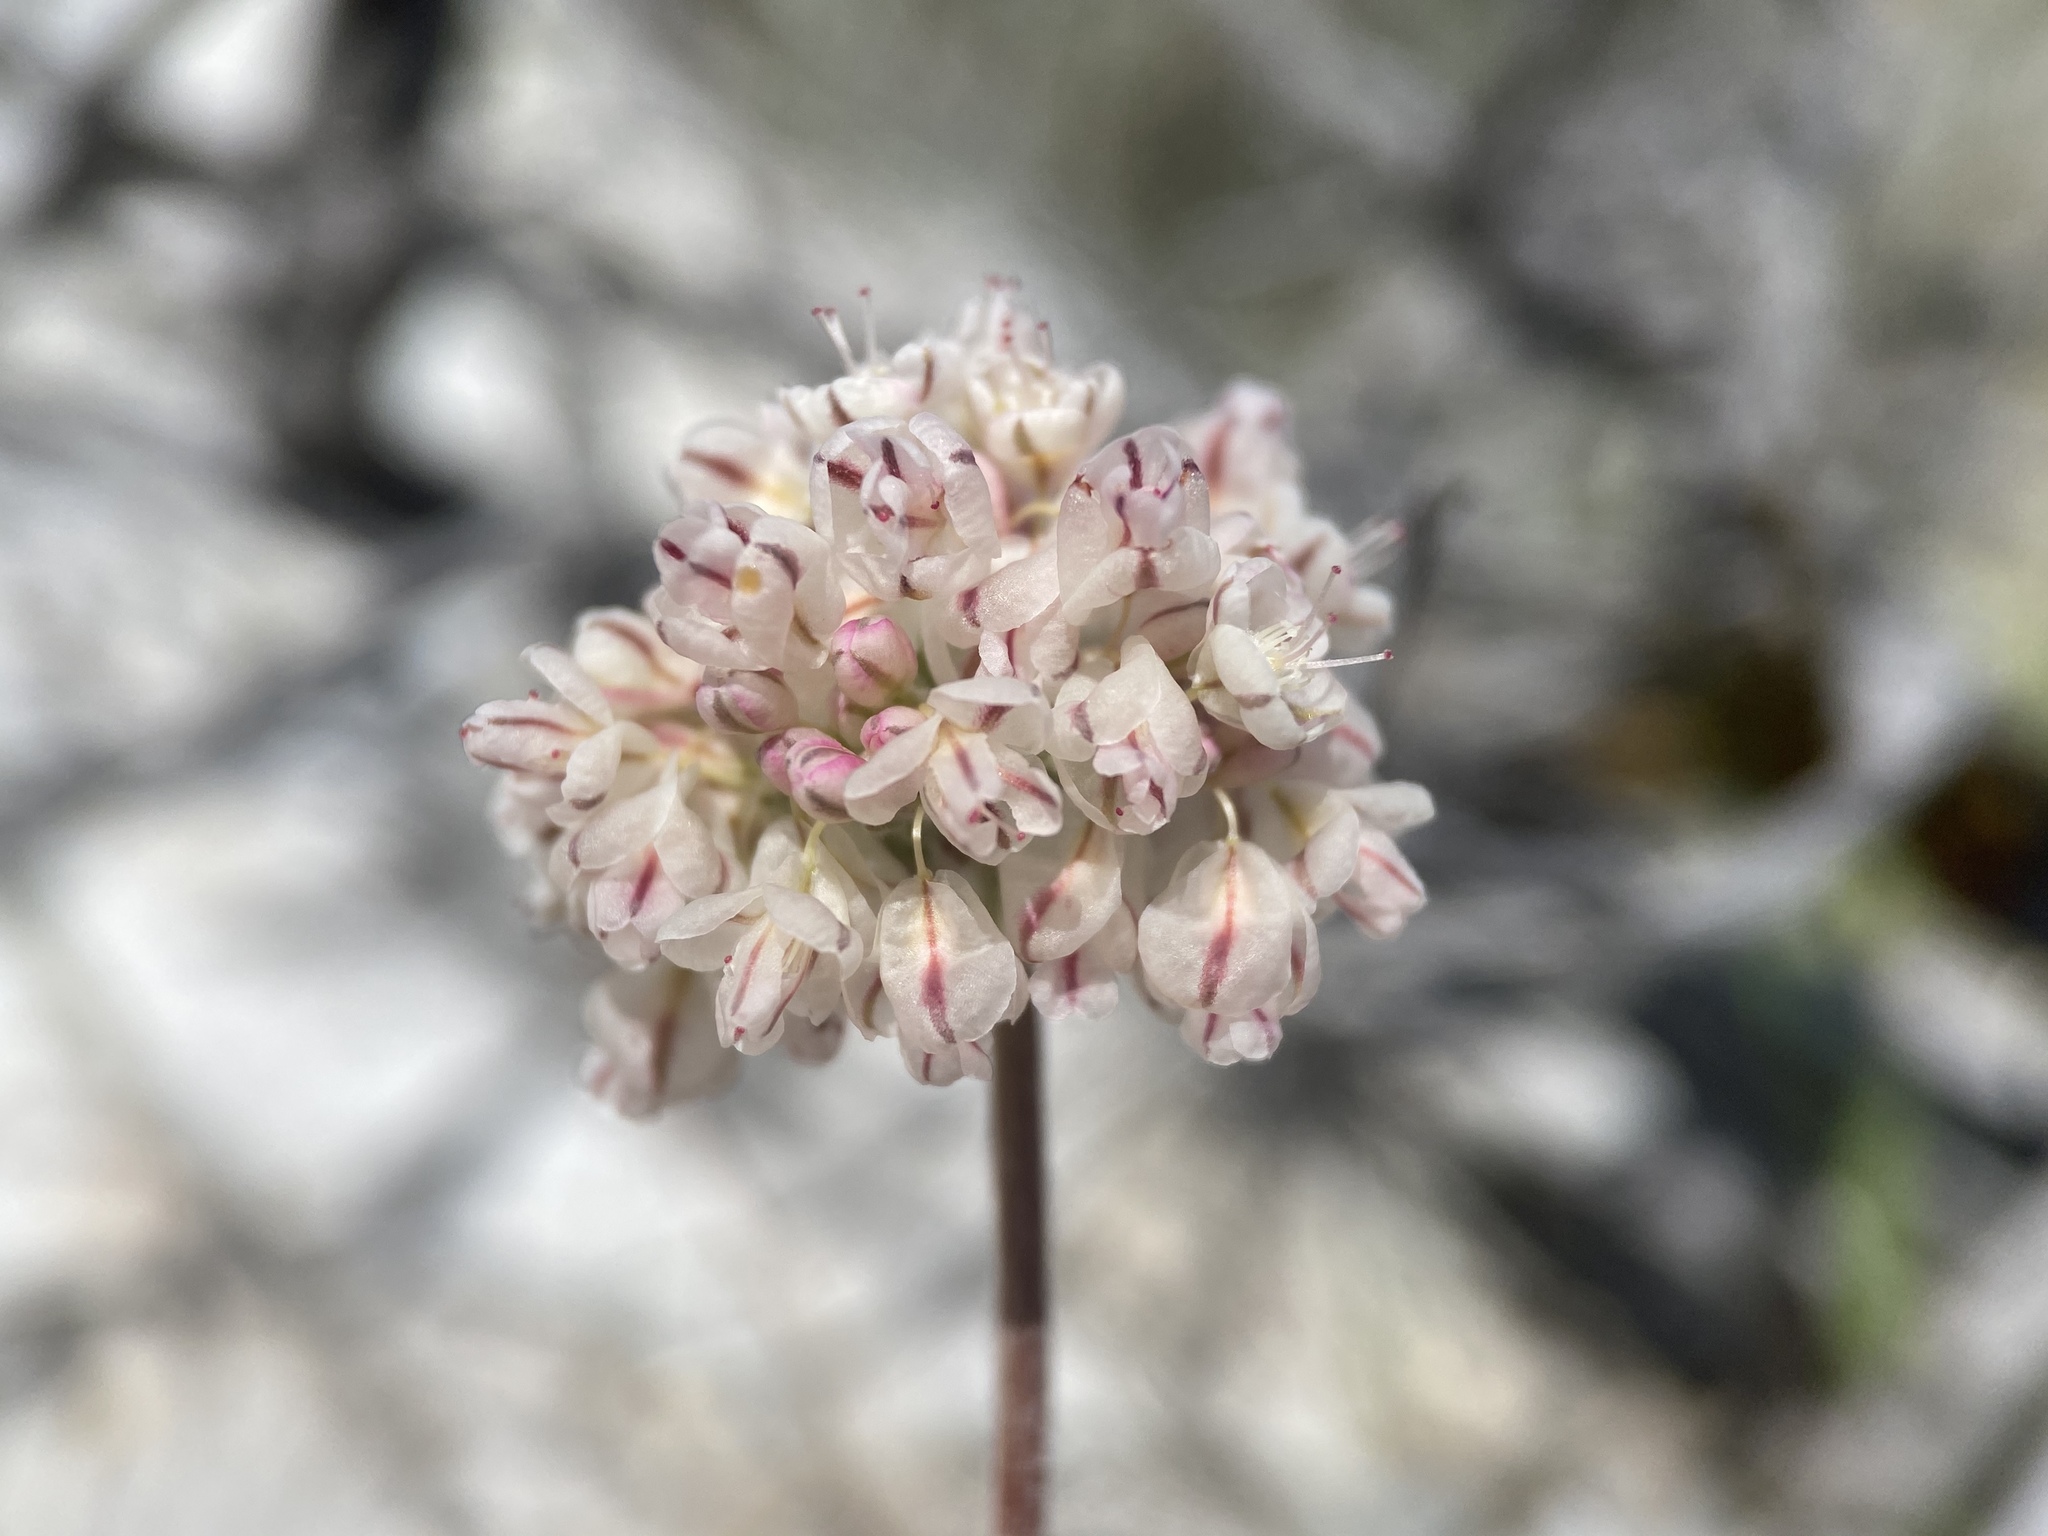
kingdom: Plantae
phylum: Tracheophyta
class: Magnoliopsida
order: Caryophyllales
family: Polygonaceae
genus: Eriogonum
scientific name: Eriogonum ovalifolium
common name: Cushion buckwheat
